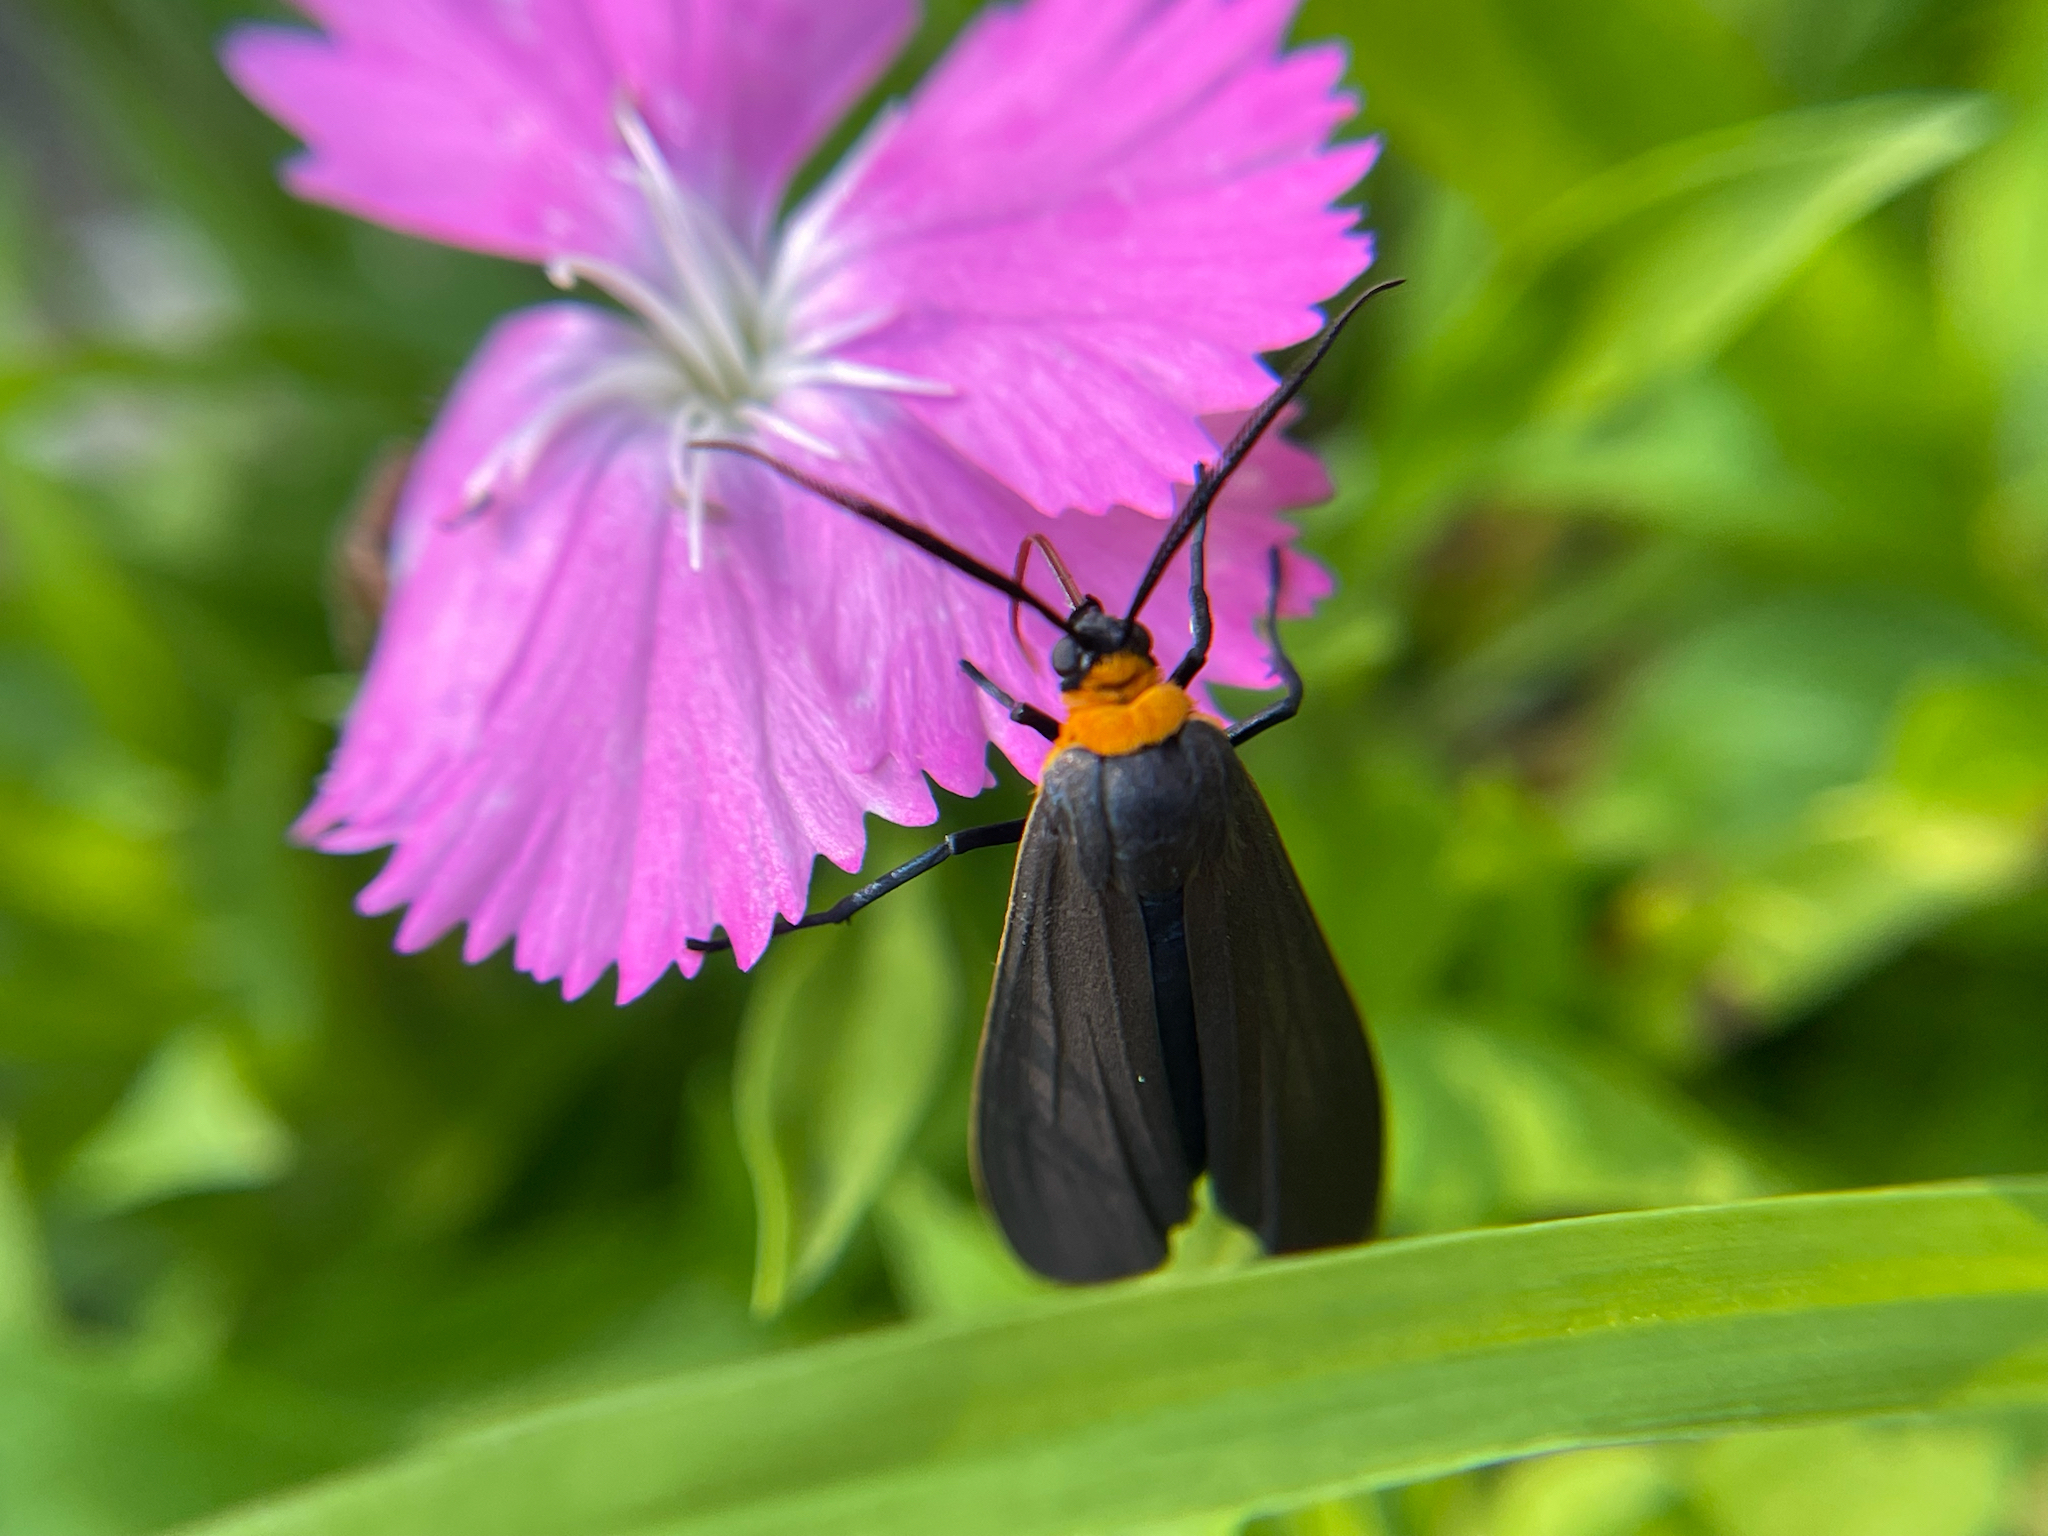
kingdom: Animalia
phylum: Arthropoda
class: Insecta
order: Lepidoptera
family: Erebidae
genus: Cisseps
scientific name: Cisseps fulvicollis
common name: Yellow-collared scape moth
